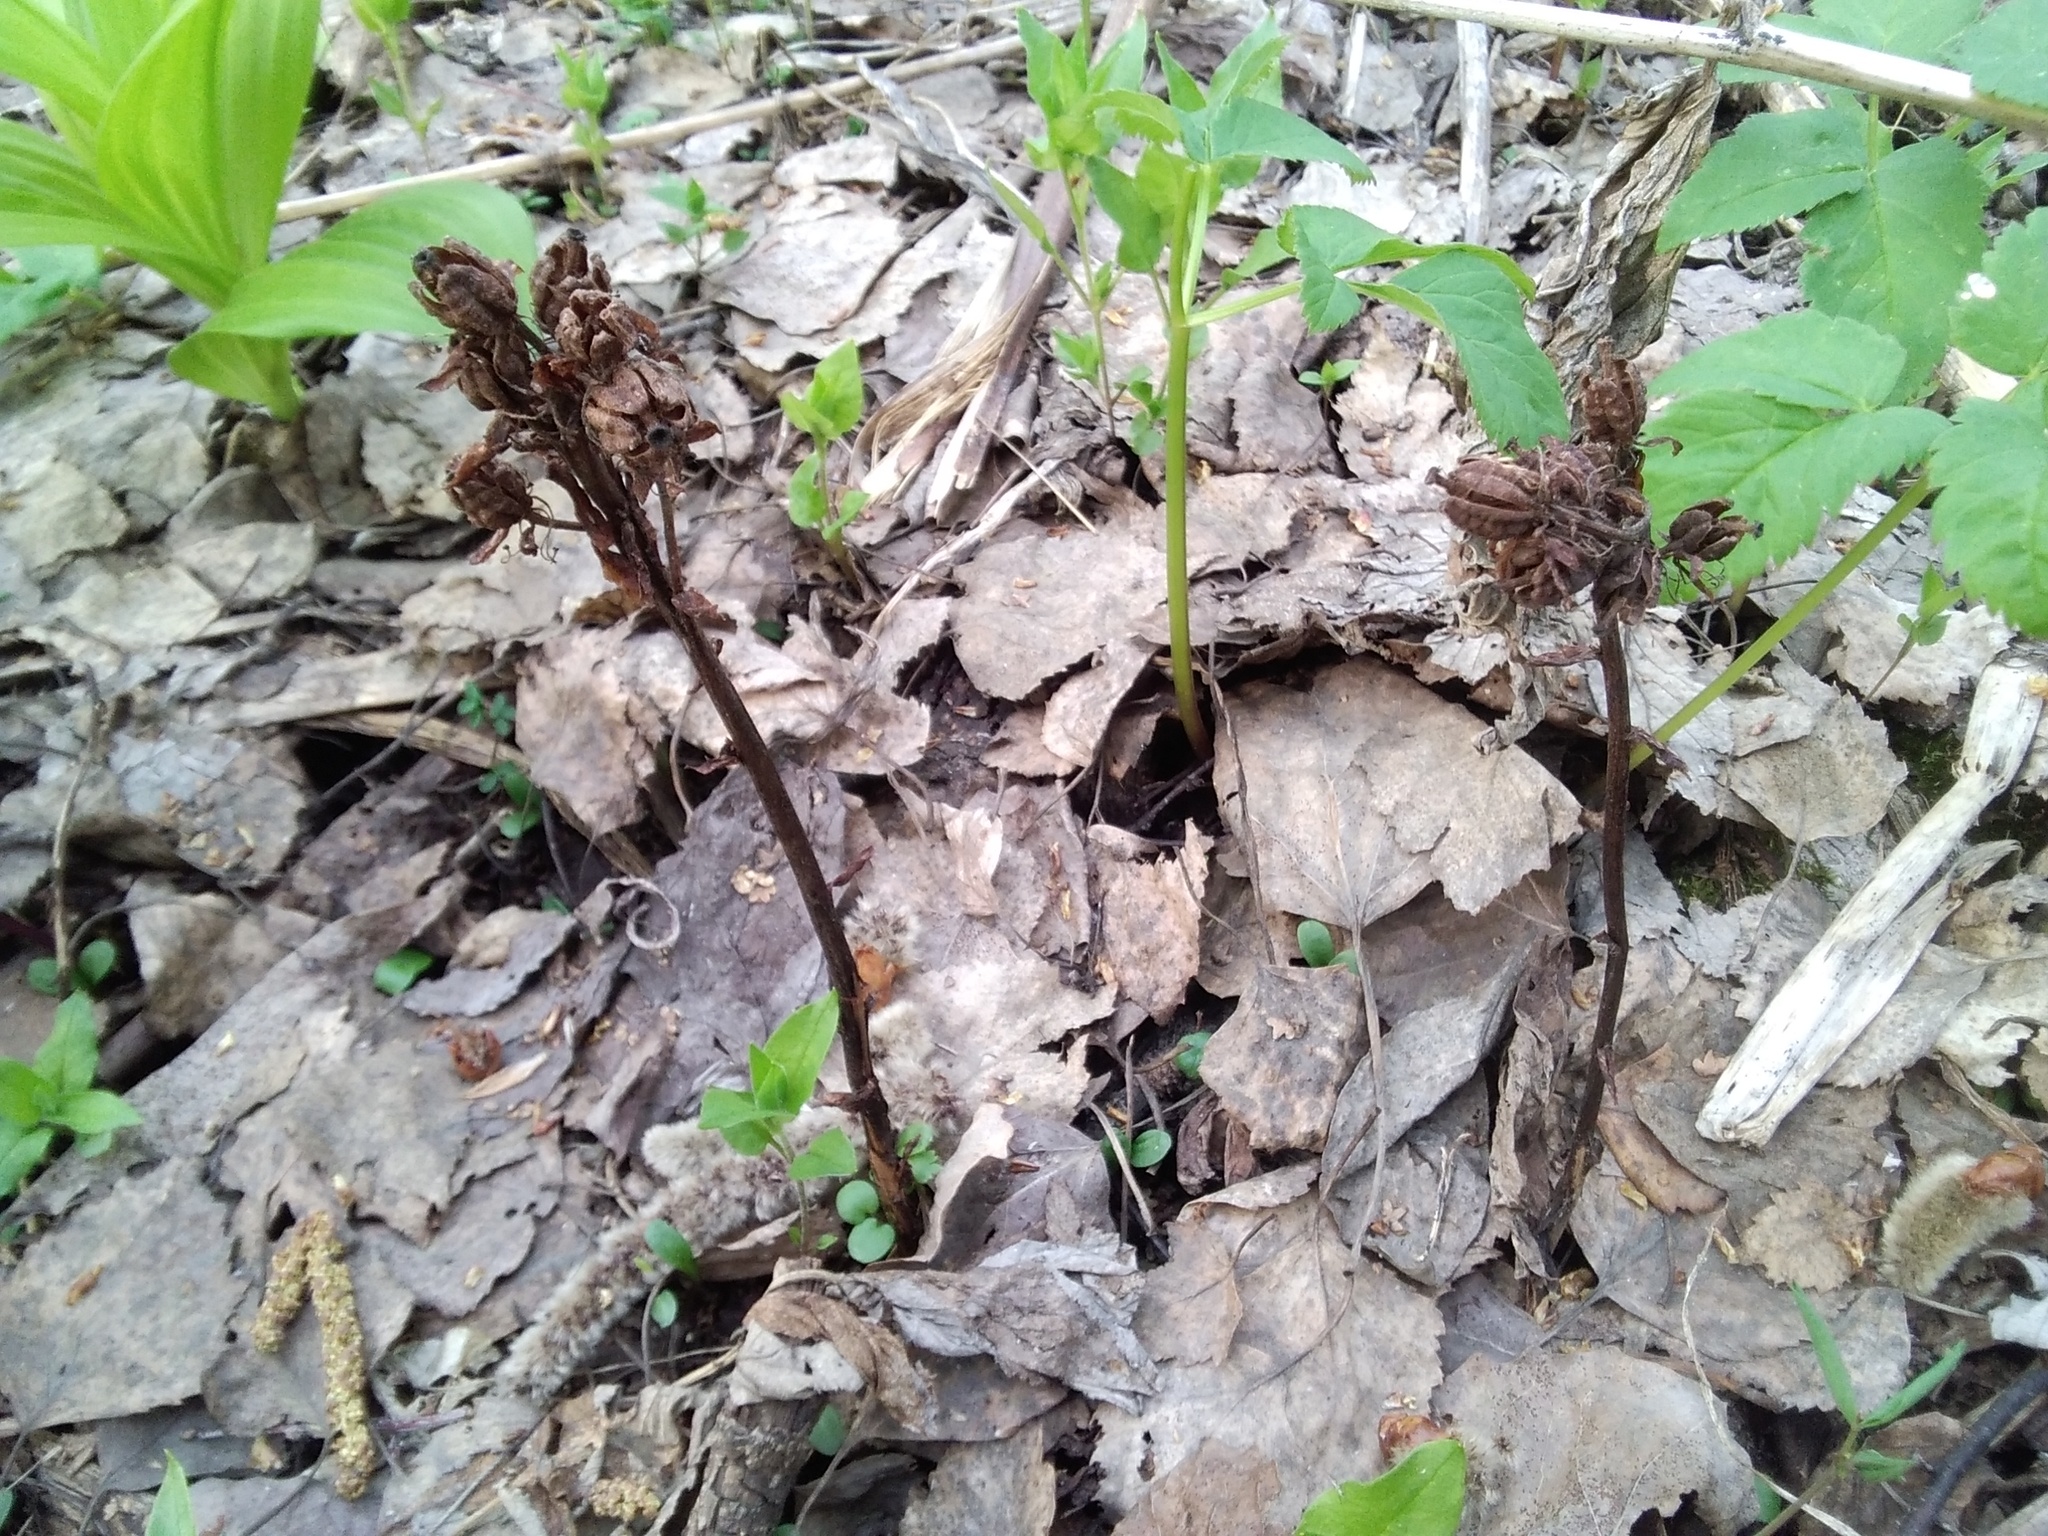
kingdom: Plantae
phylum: Tracheophyta
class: Magnoliopsida
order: Ericales
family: Ericaceae
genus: Hypopitys
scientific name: Hypopitys monotropa
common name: Yellow bird's-nest
